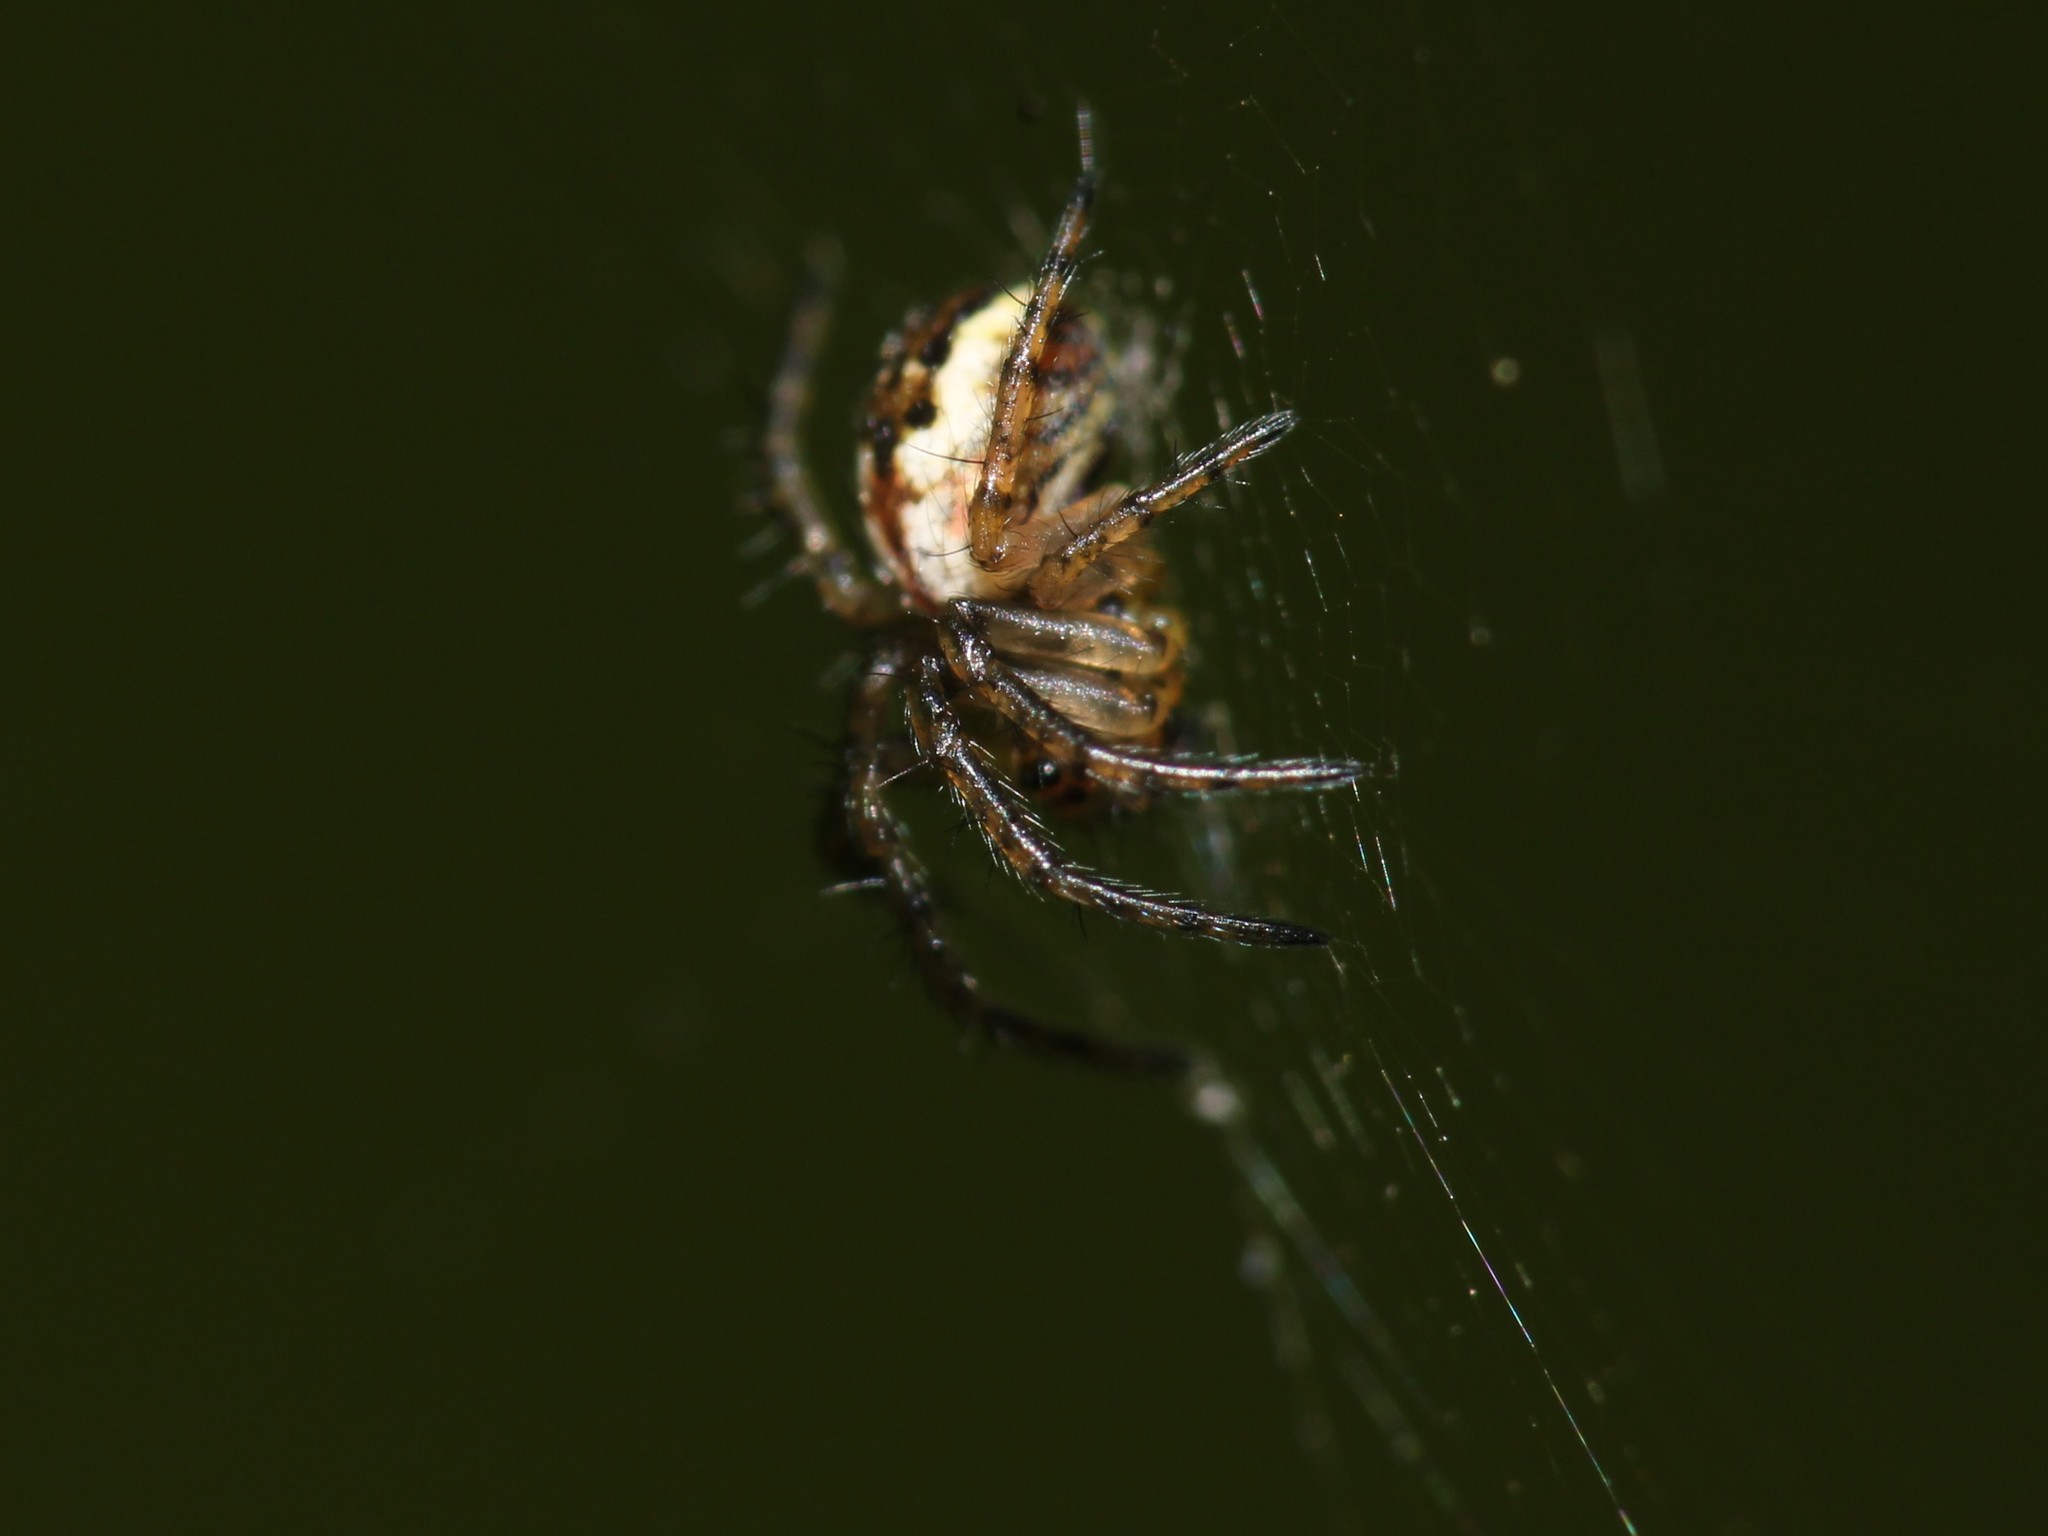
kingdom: Animalia
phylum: Arthropoda
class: Arachnida
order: Araneae
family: Araneidae
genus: Mangora
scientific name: Mangora acalypha
